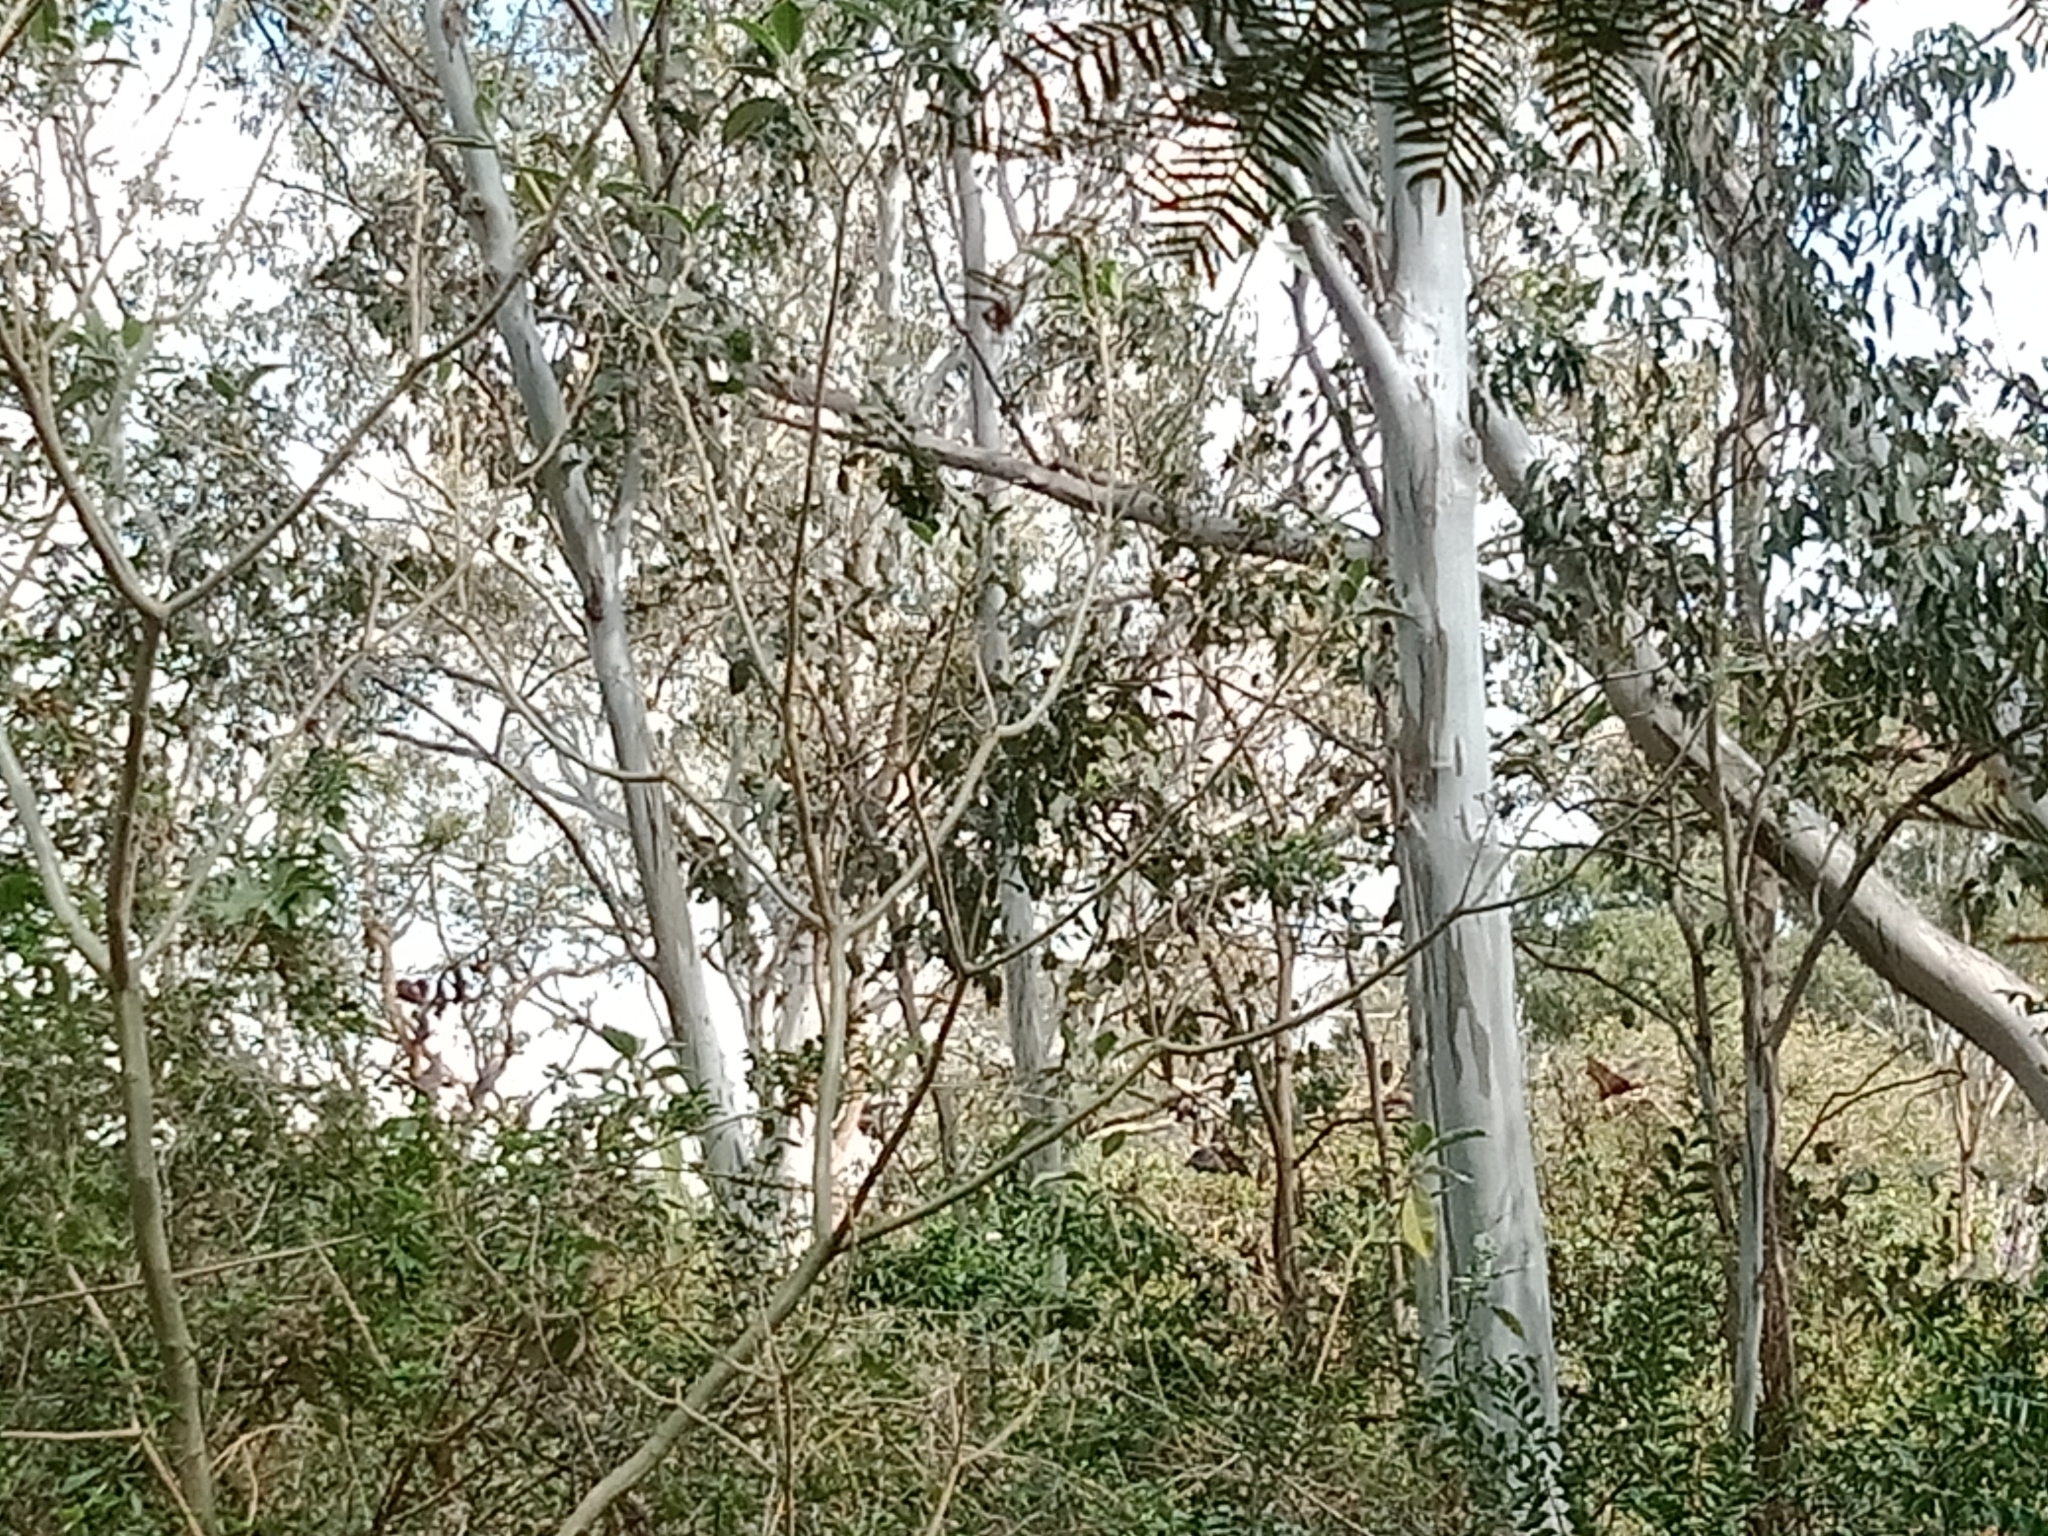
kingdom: Animalia
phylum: Chordata
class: Mammalia
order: Chiroptera
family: Pteropodidae
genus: Pteropus
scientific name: Pteropus poliocephalus
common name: Gray-headed flying fox
